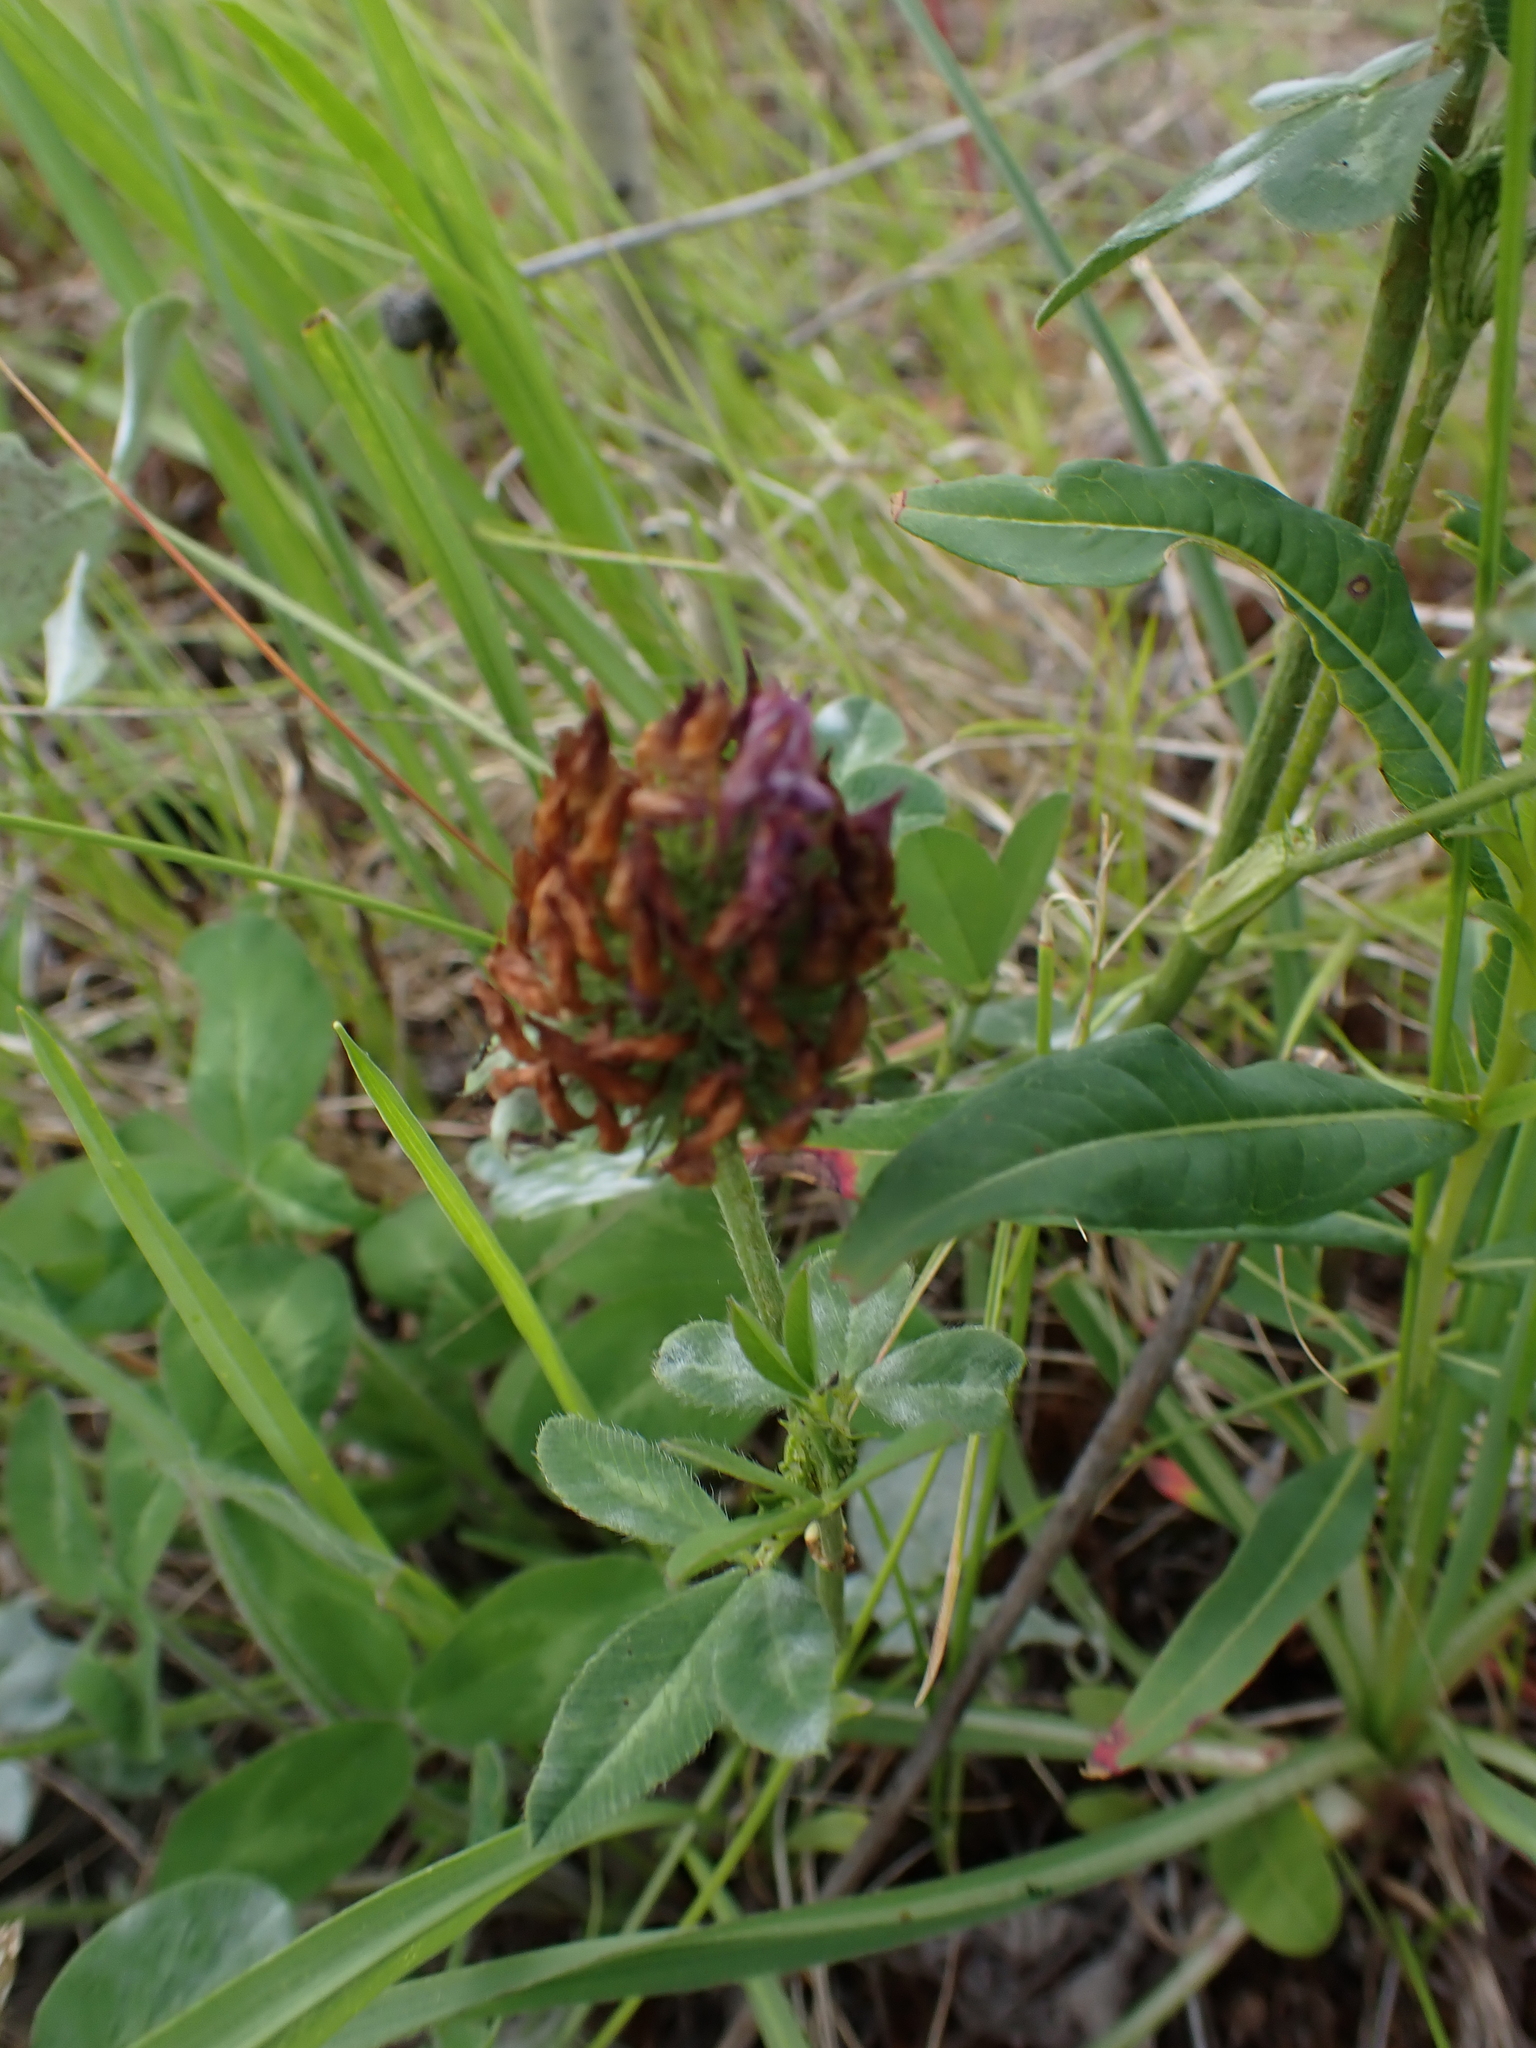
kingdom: Plantae
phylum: Tracheophyta
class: Magnoliopsida
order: Fabales
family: Fabaceae
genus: Trifolium
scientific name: Trifolium pratense
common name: Red clover
